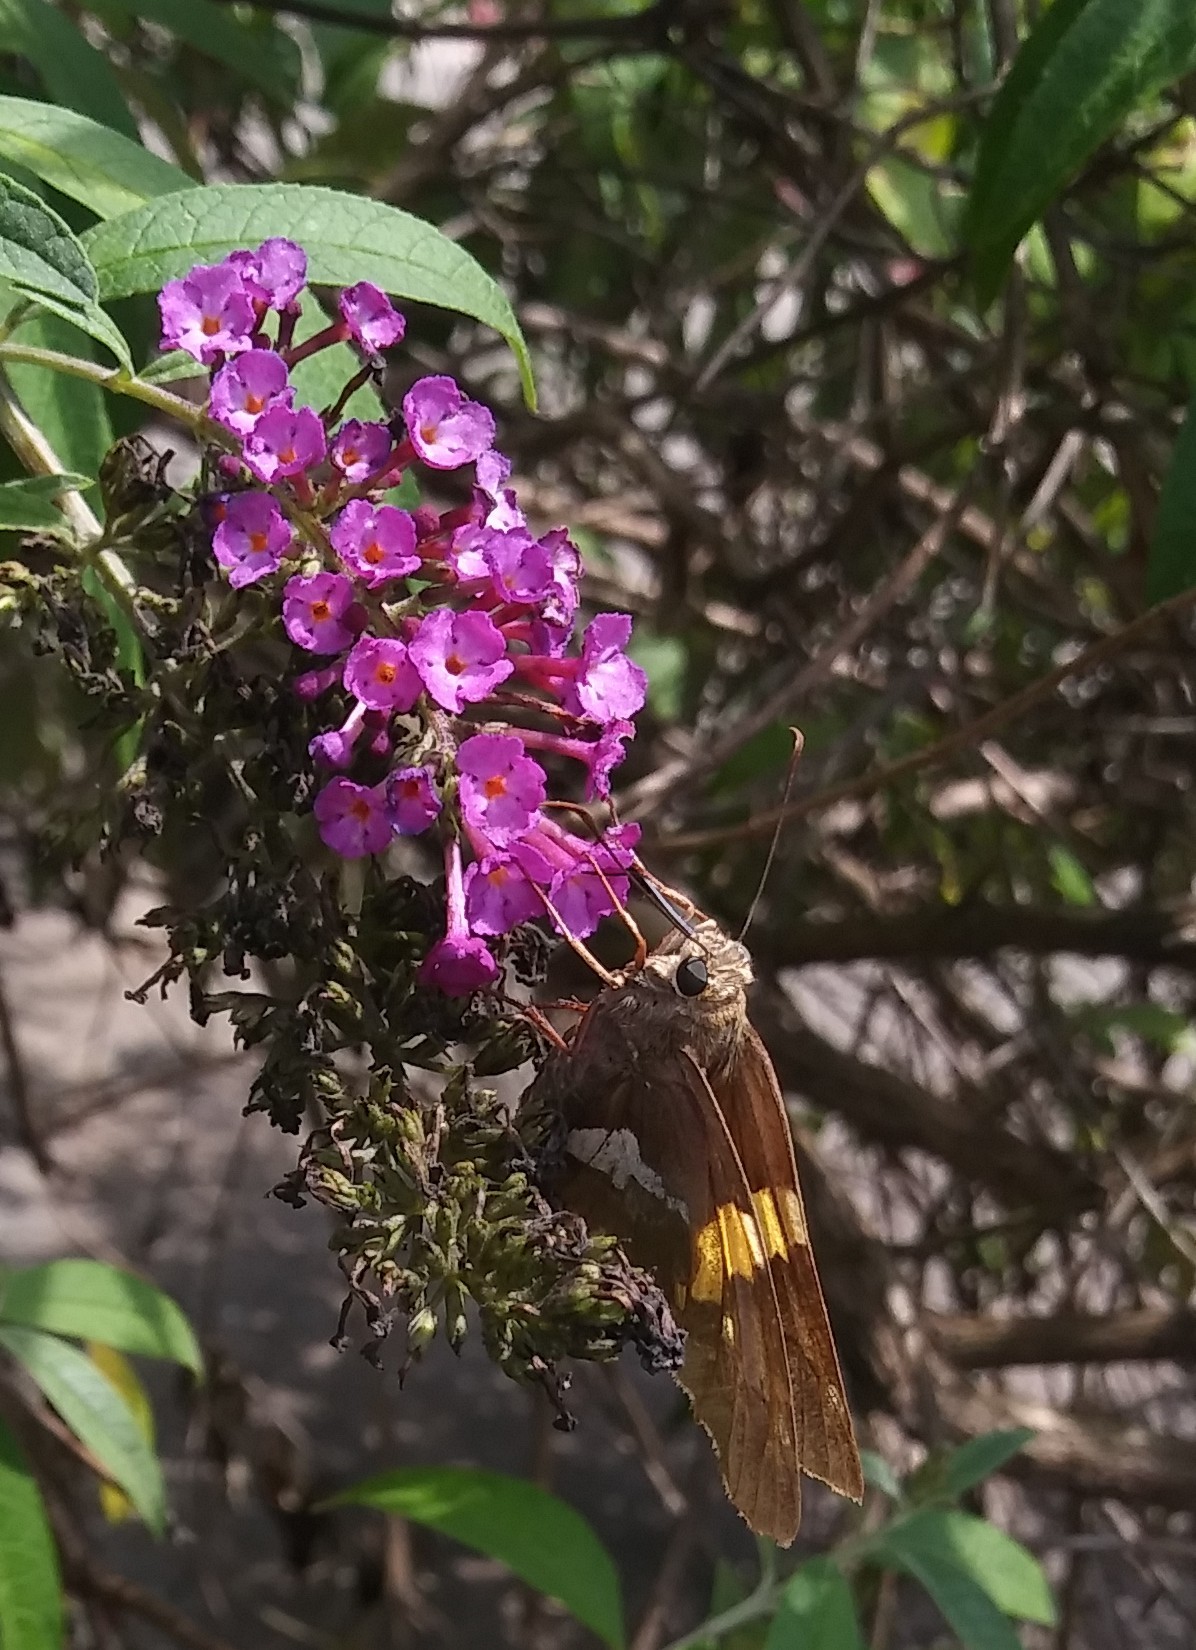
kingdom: Animalia
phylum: Arthropoda
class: Insecta
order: Lepidoptera
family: Hesperiidae
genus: Epargyreus
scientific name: Epargyreus clarus
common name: Silver-spotted skipper
